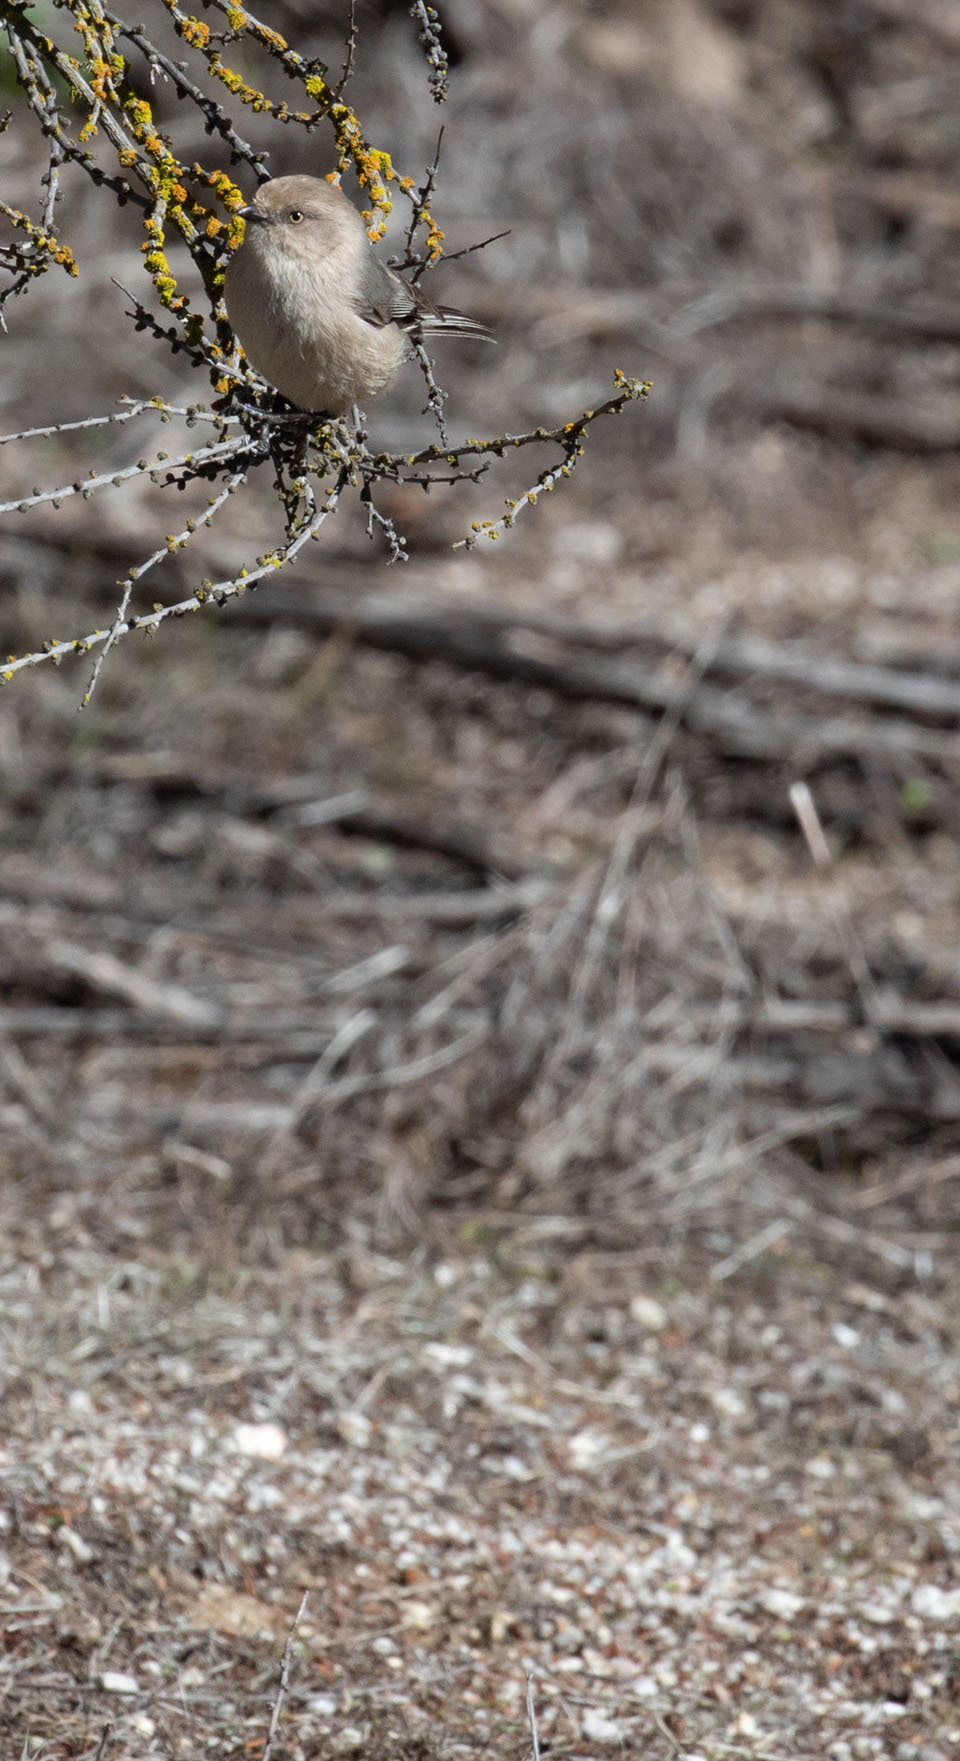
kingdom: Animalia
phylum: Chordata
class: Aves
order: Passeriformes
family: Aegithalidae
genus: Psaltriparus
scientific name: Psaltriparus minimus
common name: American bushtit
